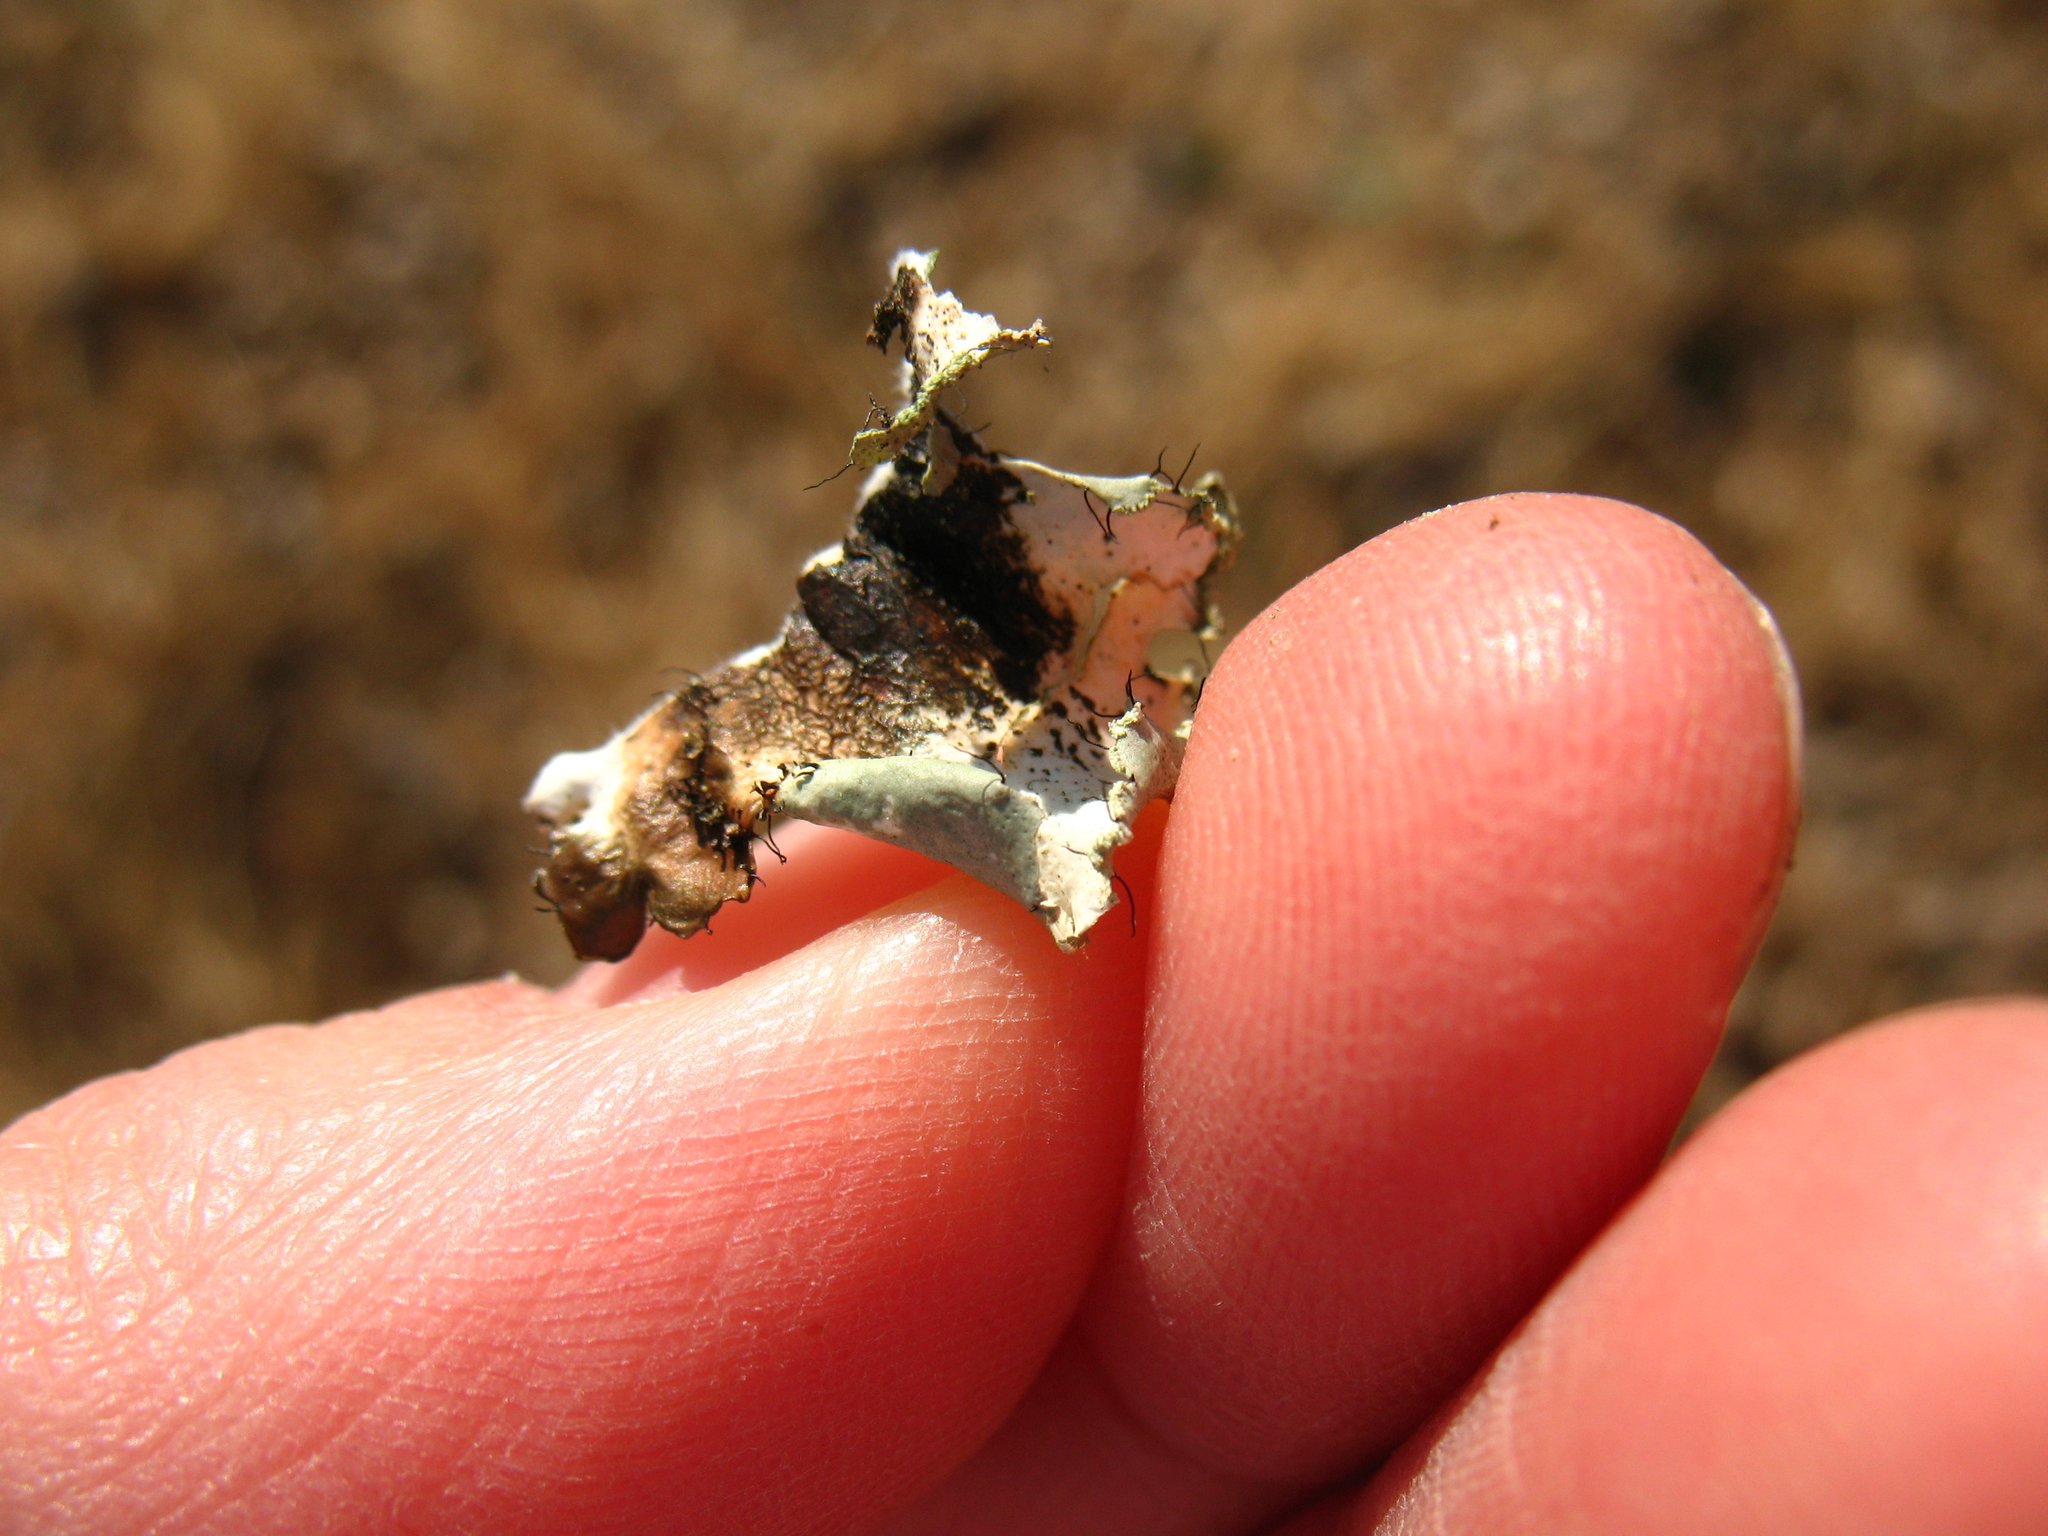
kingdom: Fungi
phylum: Ascomycota
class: Lecanoromycetes
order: Lecanorales
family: Parmeliaceae
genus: Parmotrema
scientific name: Parmotrema hypotropum
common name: Powdered ruffle lichen
